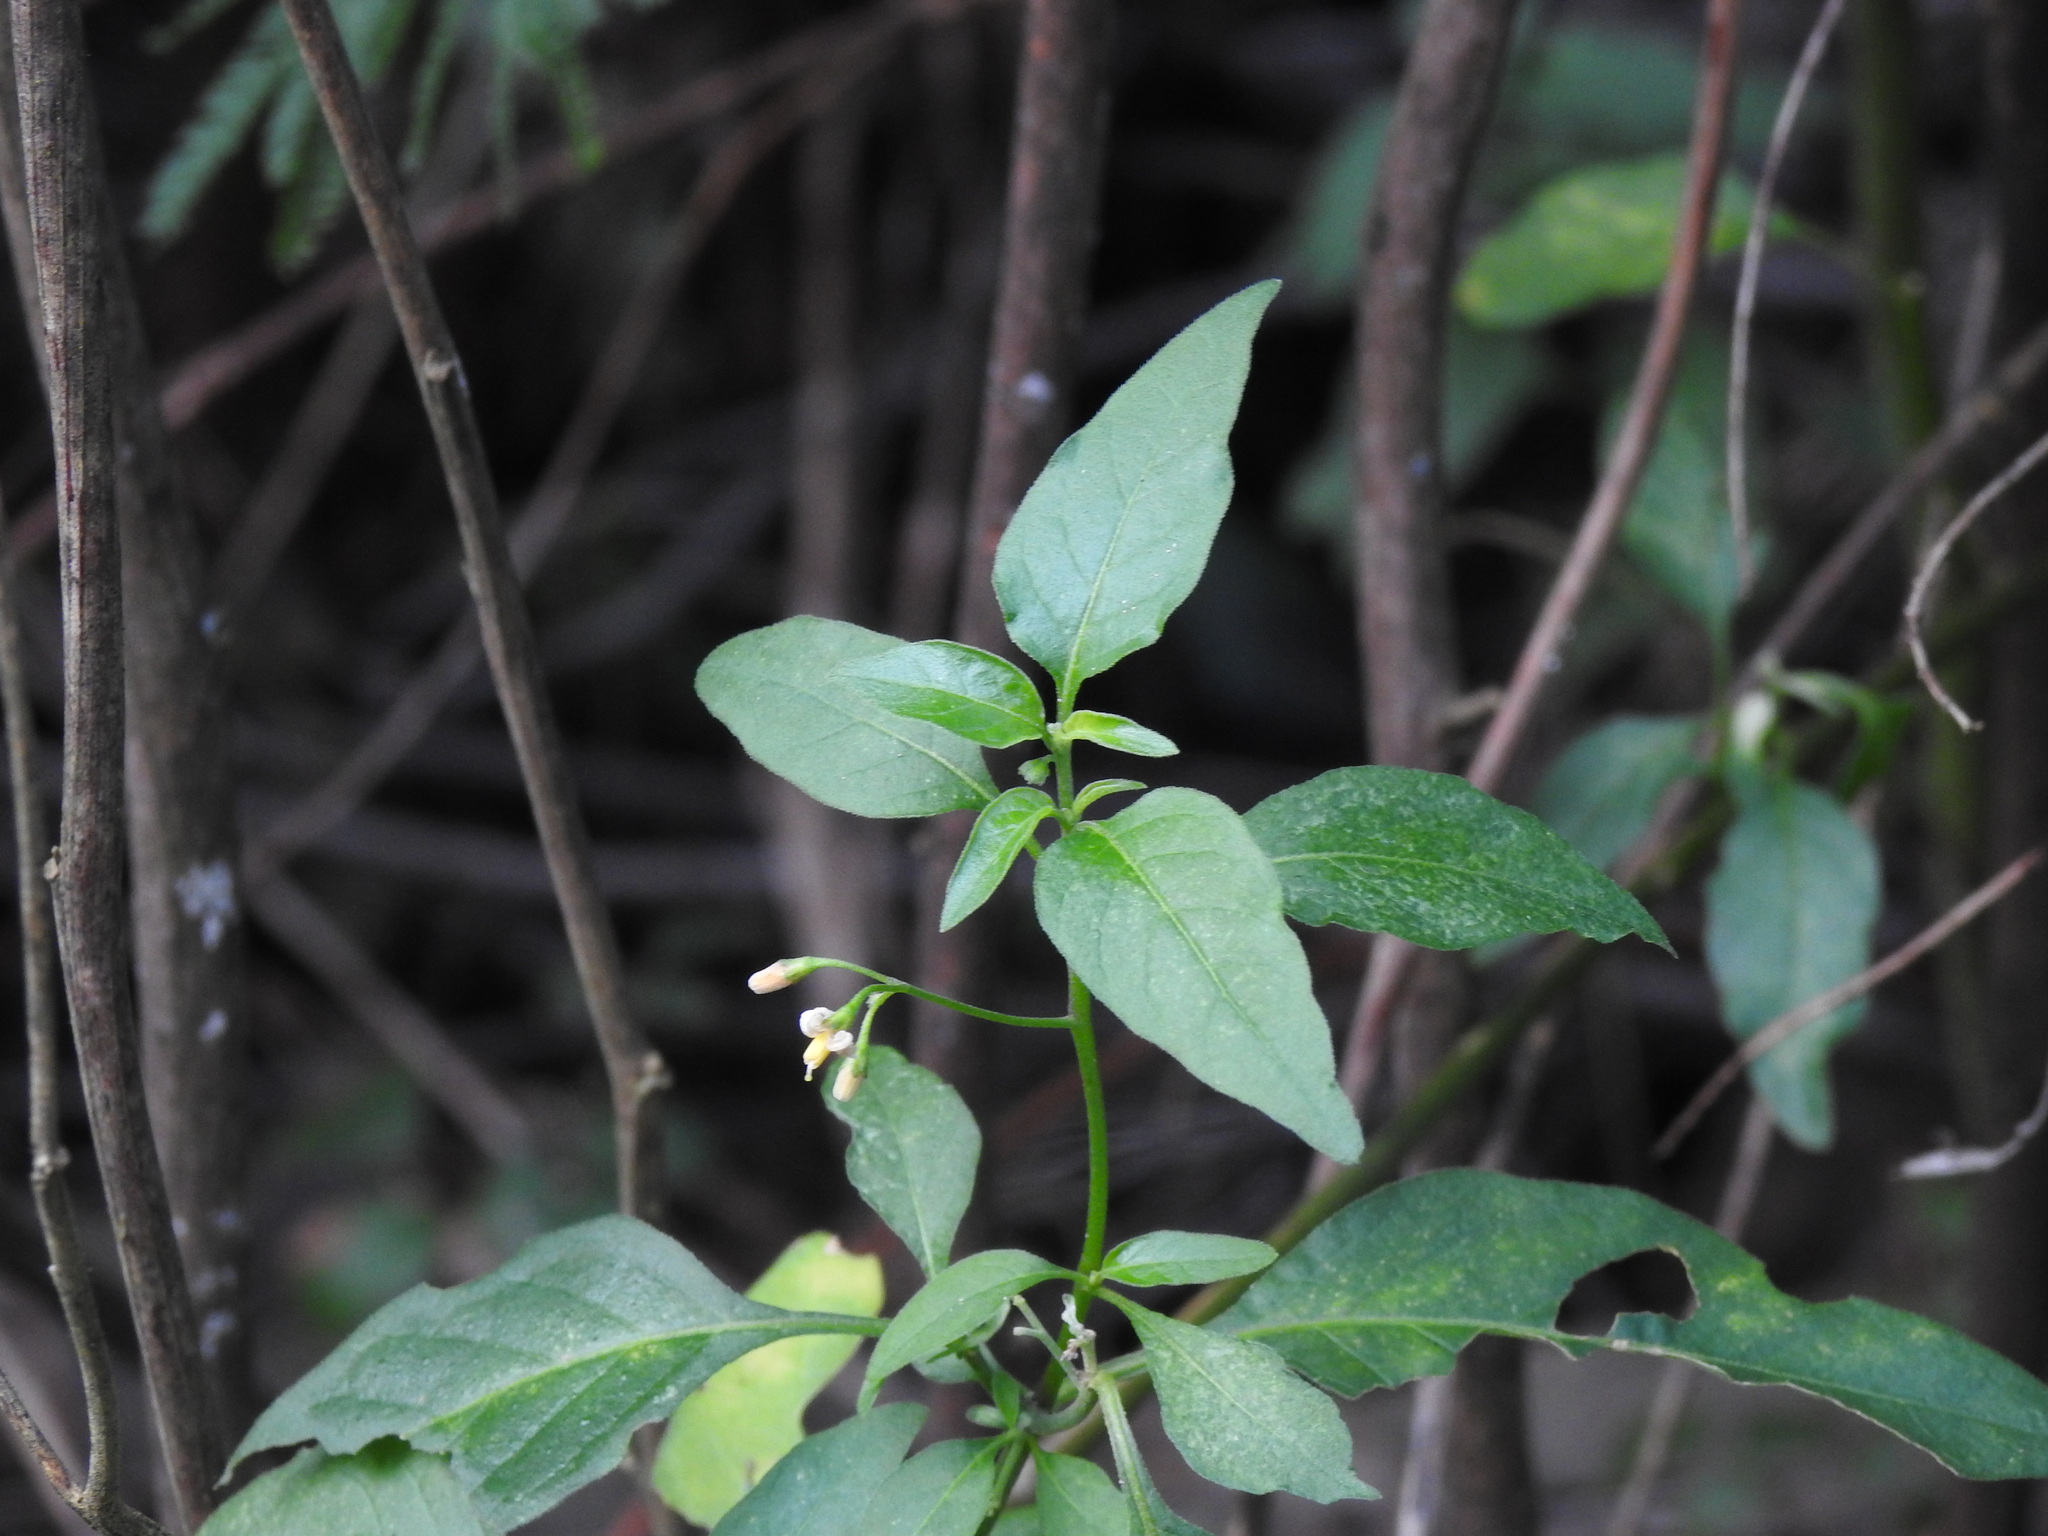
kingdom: Plantae
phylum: Tracheophyta
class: Magnoliopsida
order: Solanales
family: Solanaceae
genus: Solanum
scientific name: Solanum chenopodioides
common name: Tall nightshade
